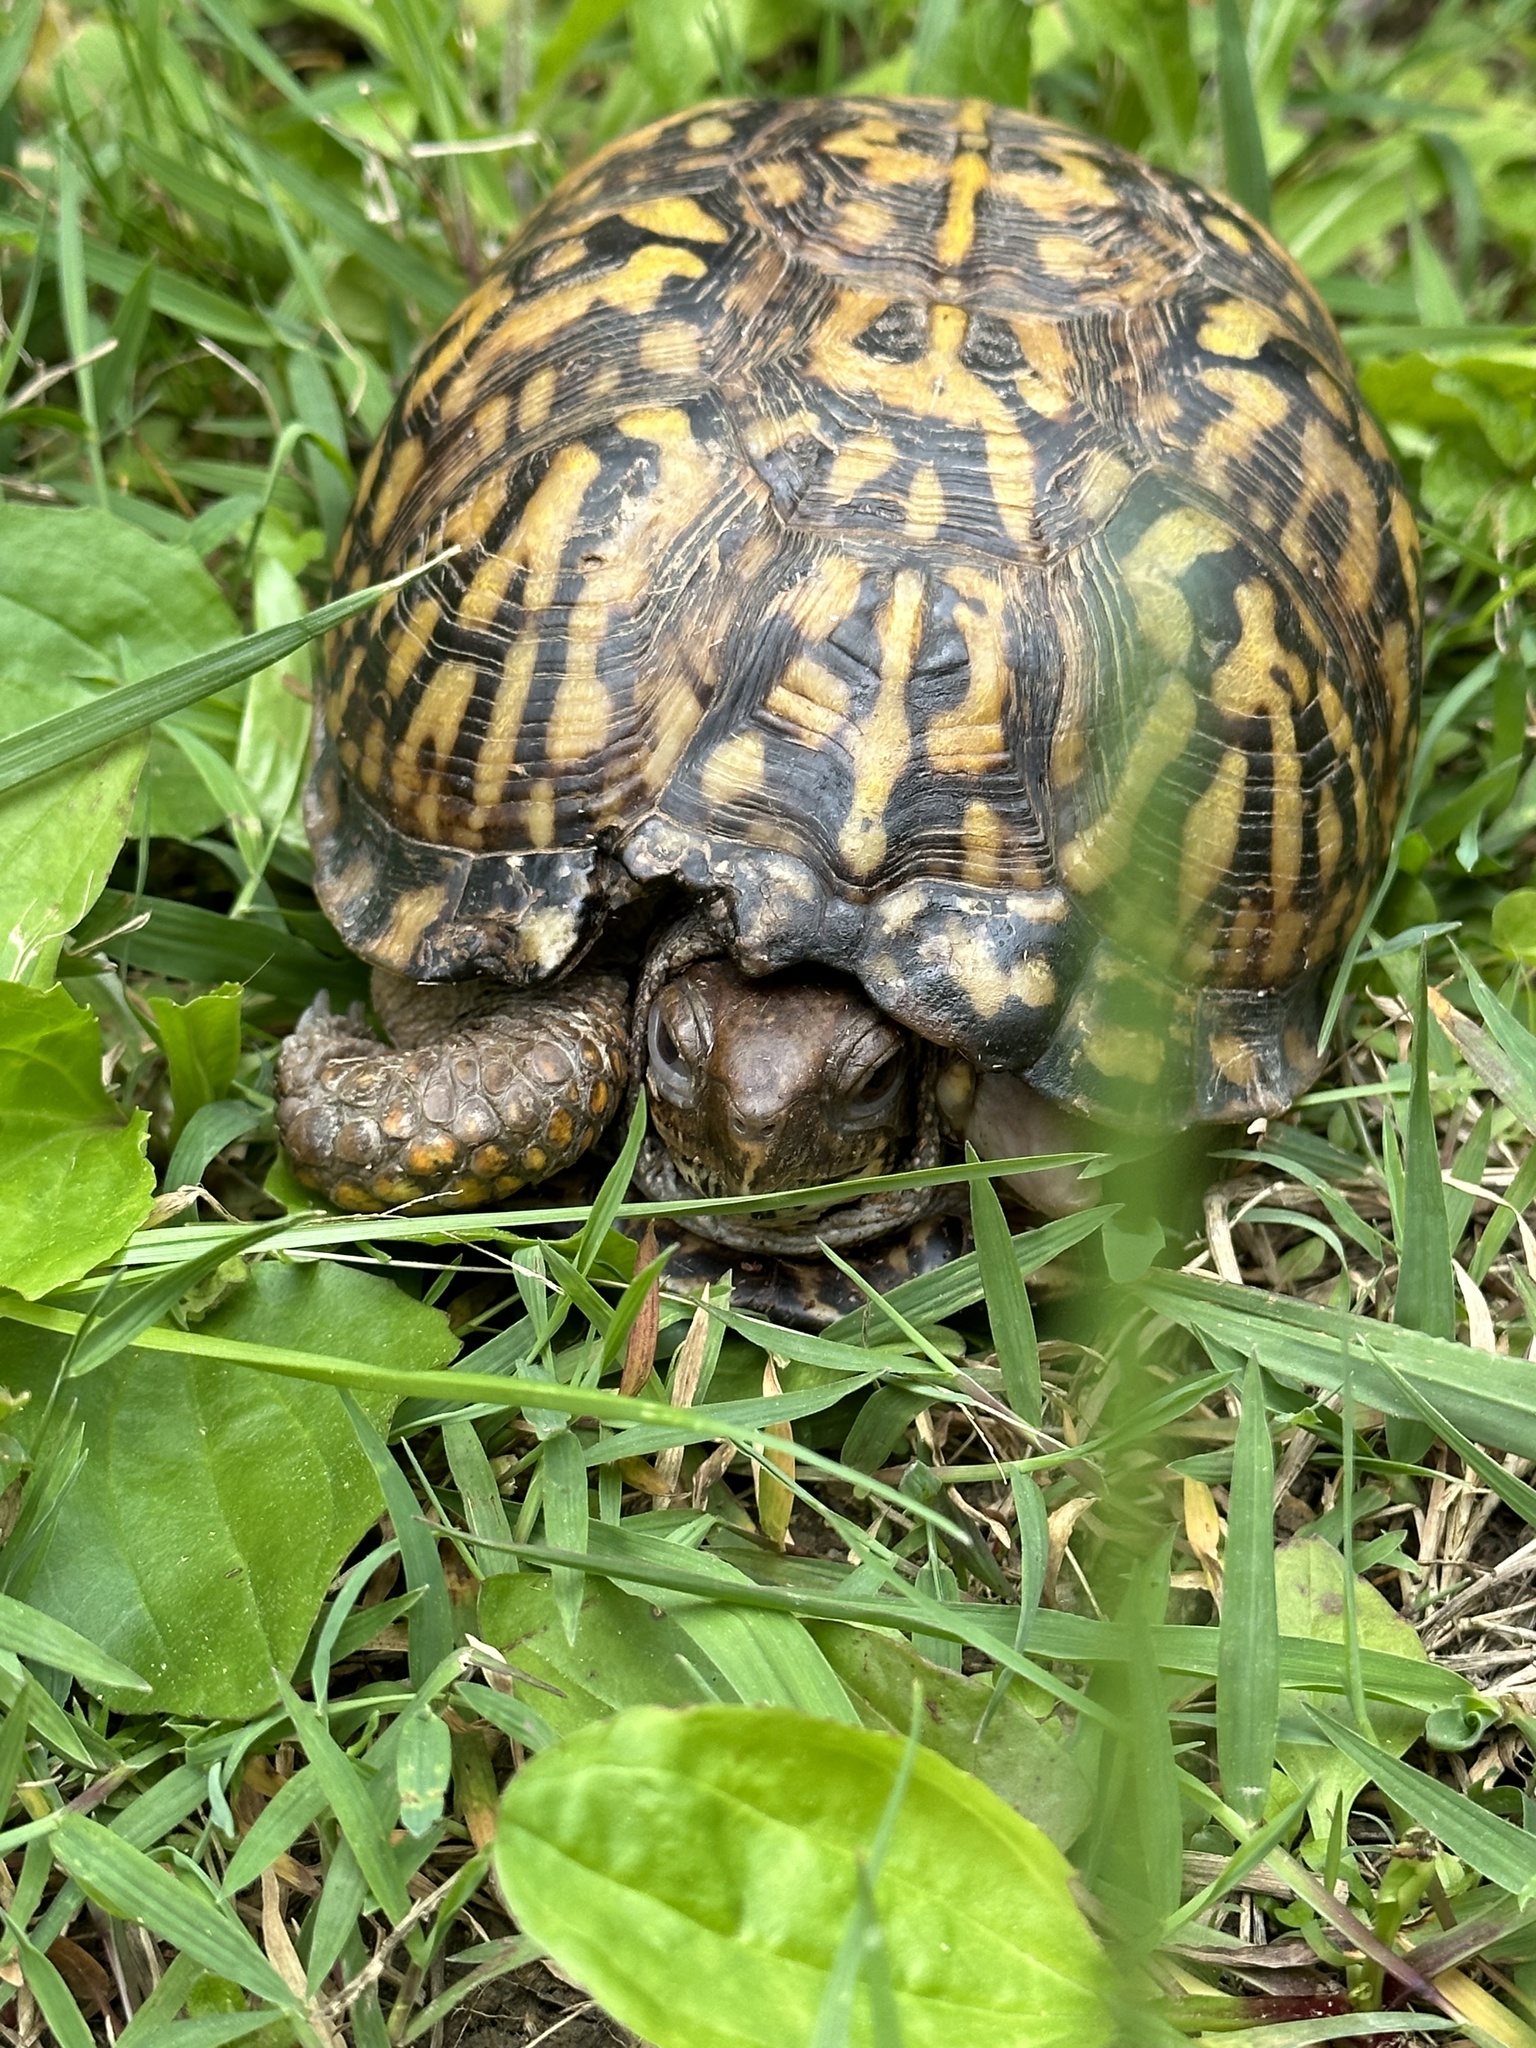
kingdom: Animalia
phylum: Chordata
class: Testudines
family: Emydidae
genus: Terrapene
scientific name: Terrapene carolina
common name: Common box turtle
